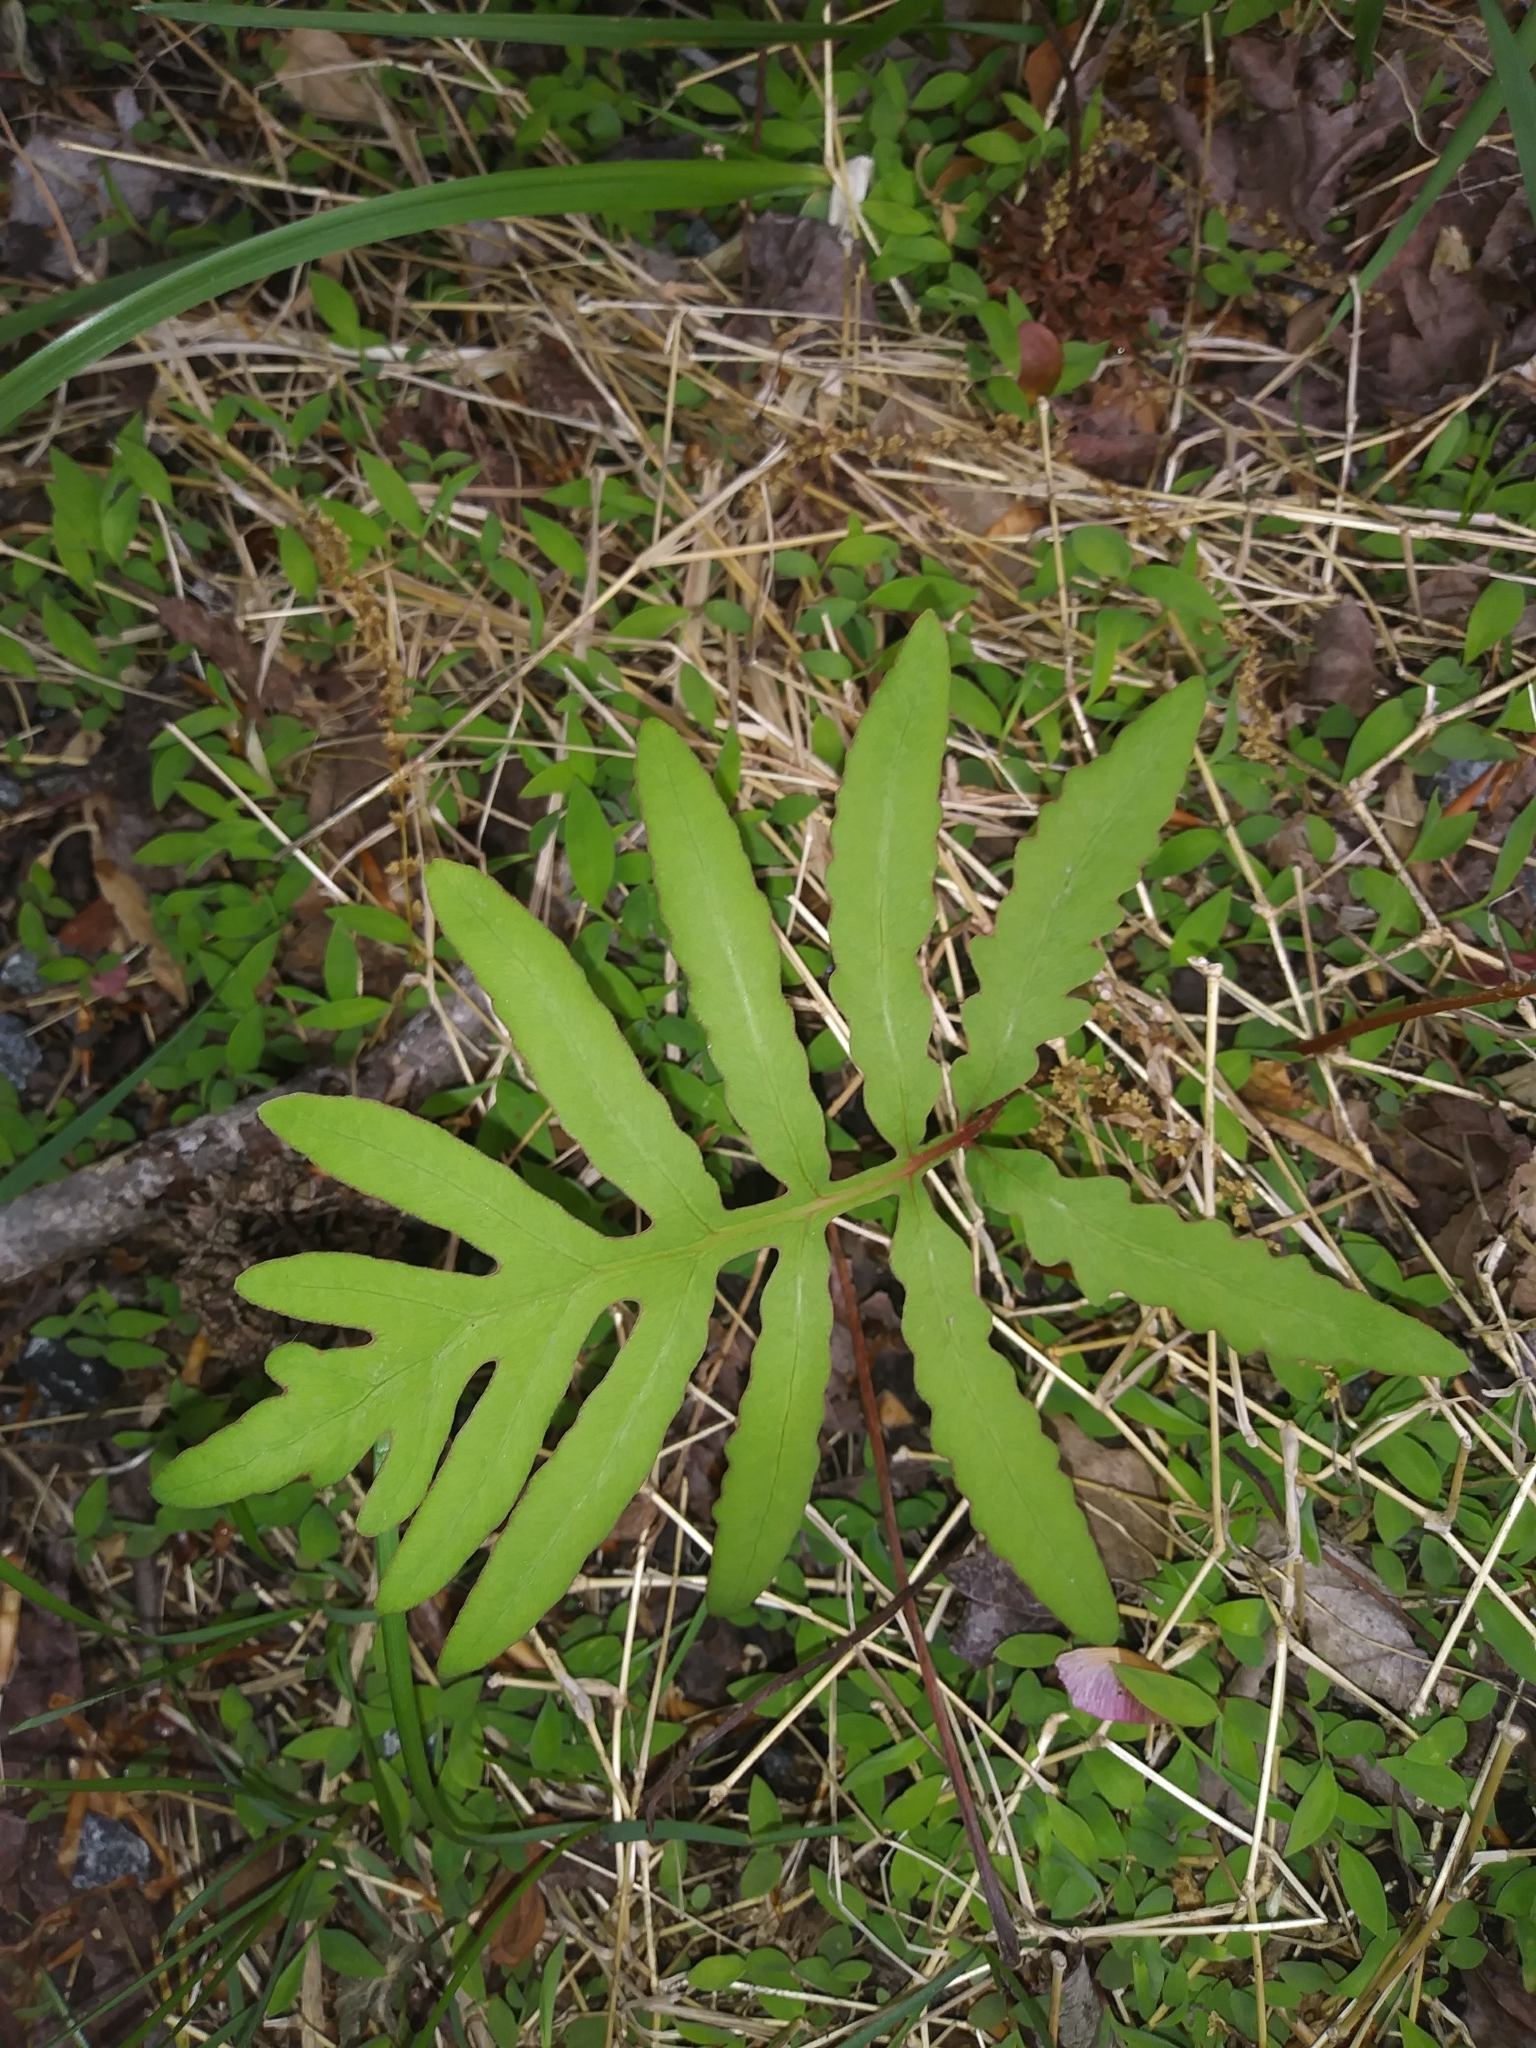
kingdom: Plantae
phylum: Tracheophyta
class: Polypodiopsida
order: Polypodiales
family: Onocleaceae
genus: Onoclea
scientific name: Onoclea sensibilis
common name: Sensitive fern
